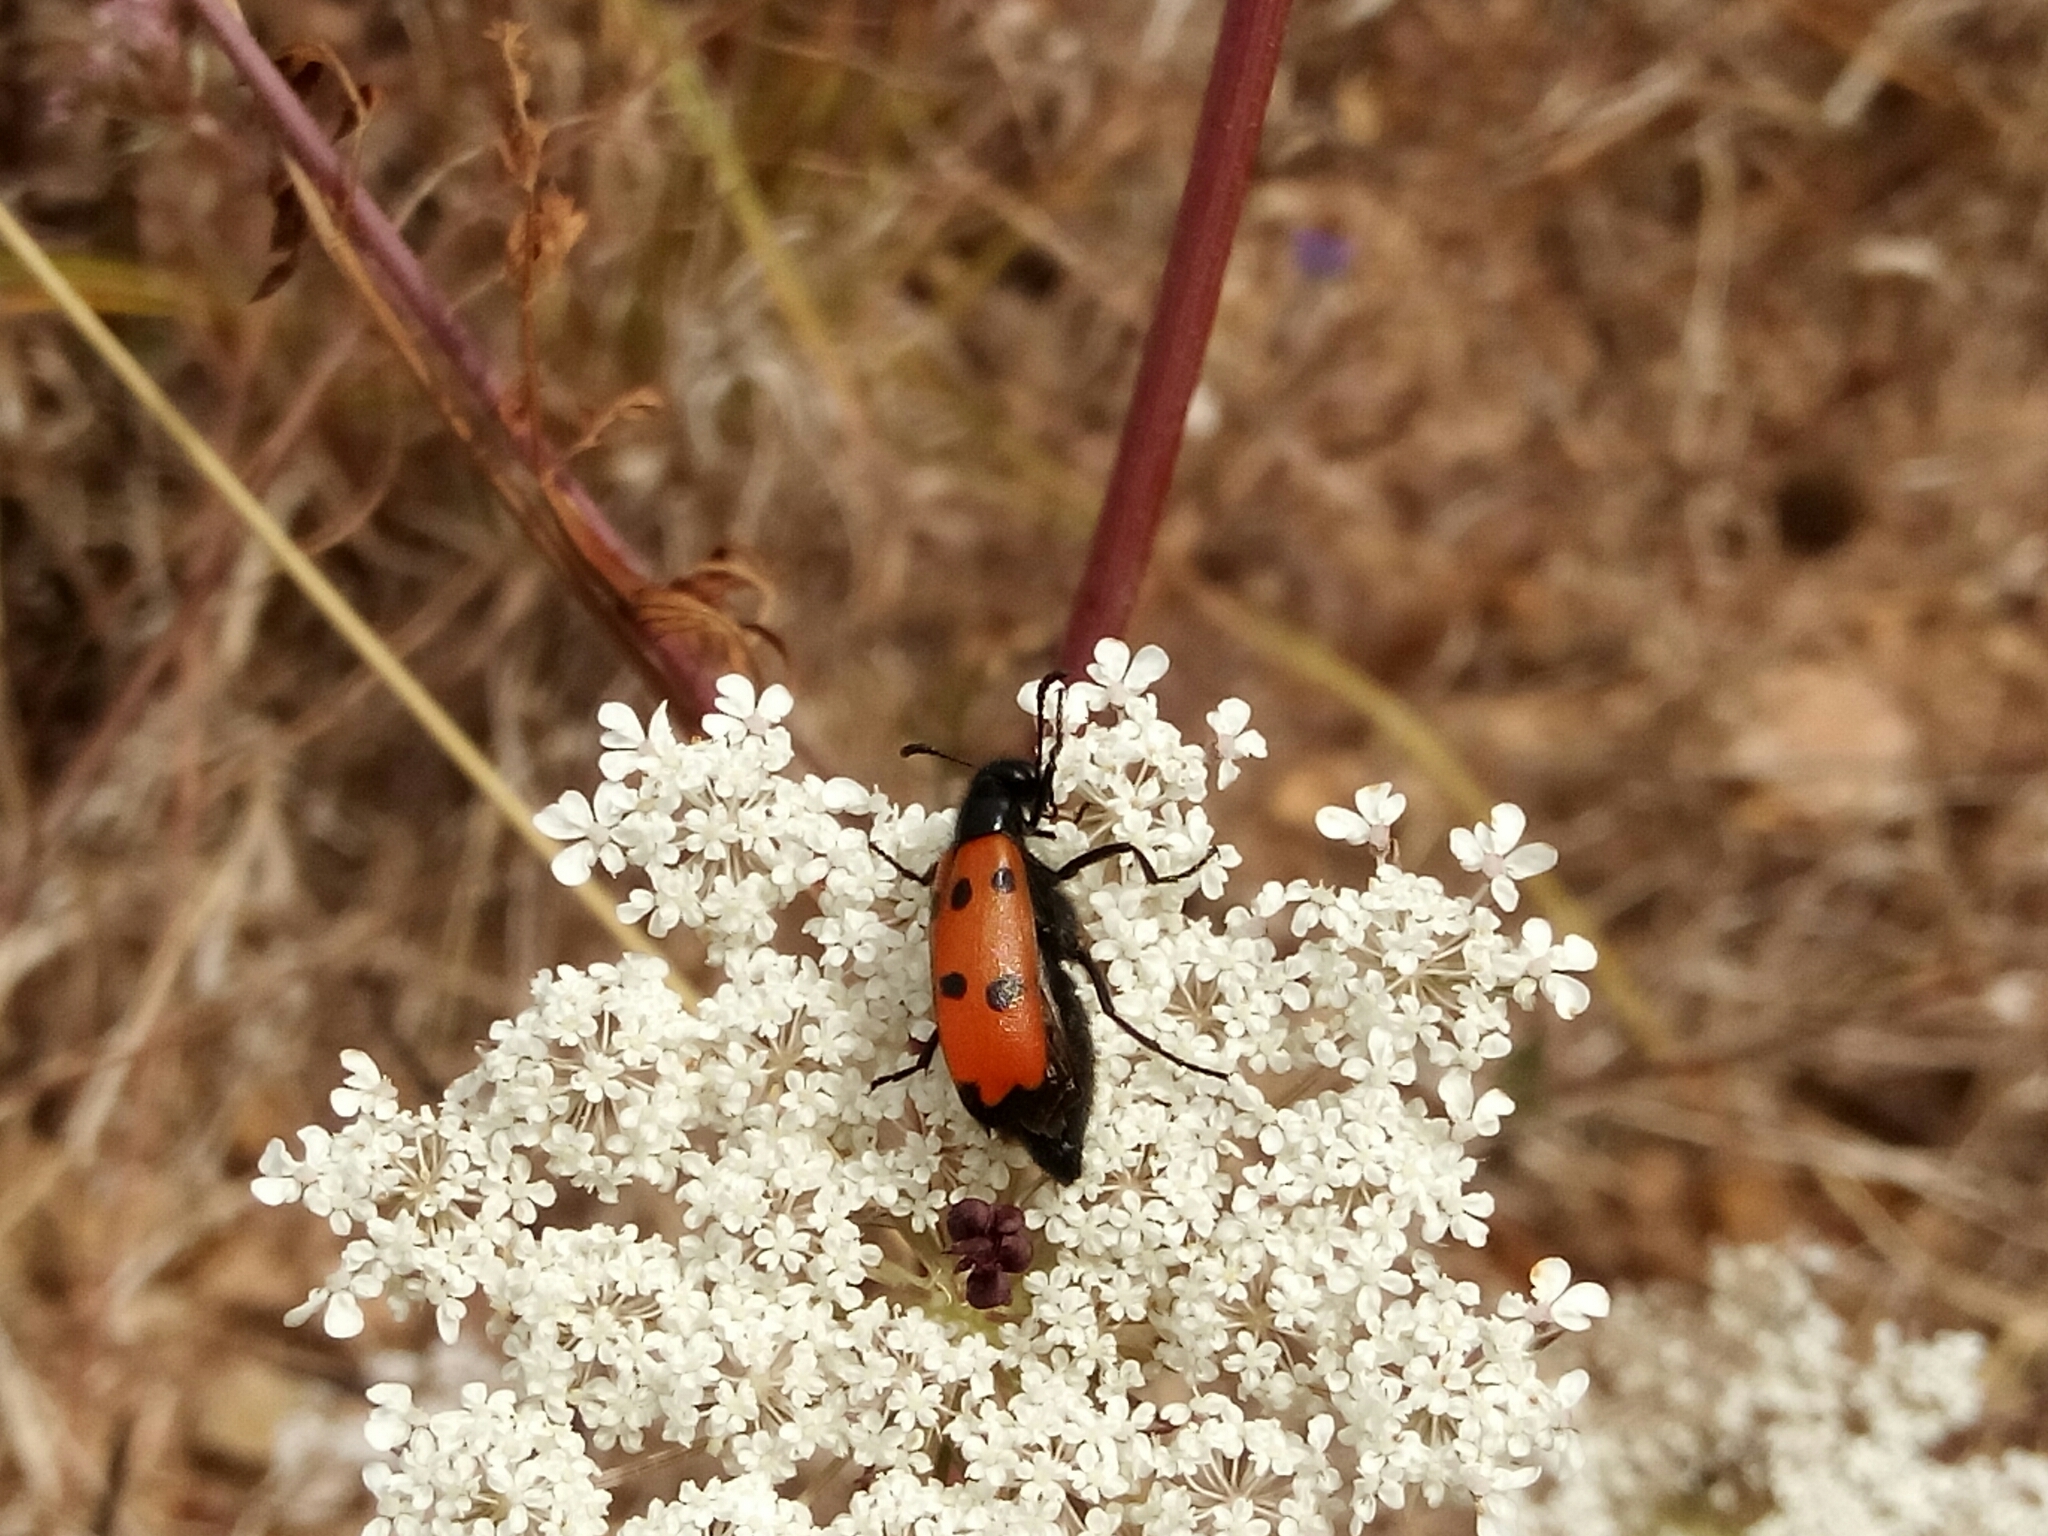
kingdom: Animalia
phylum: Arthropoda
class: Insecta
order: Coleoptera
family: Meloidae
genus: Mylabris
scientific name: Mylabris quadripunctata
